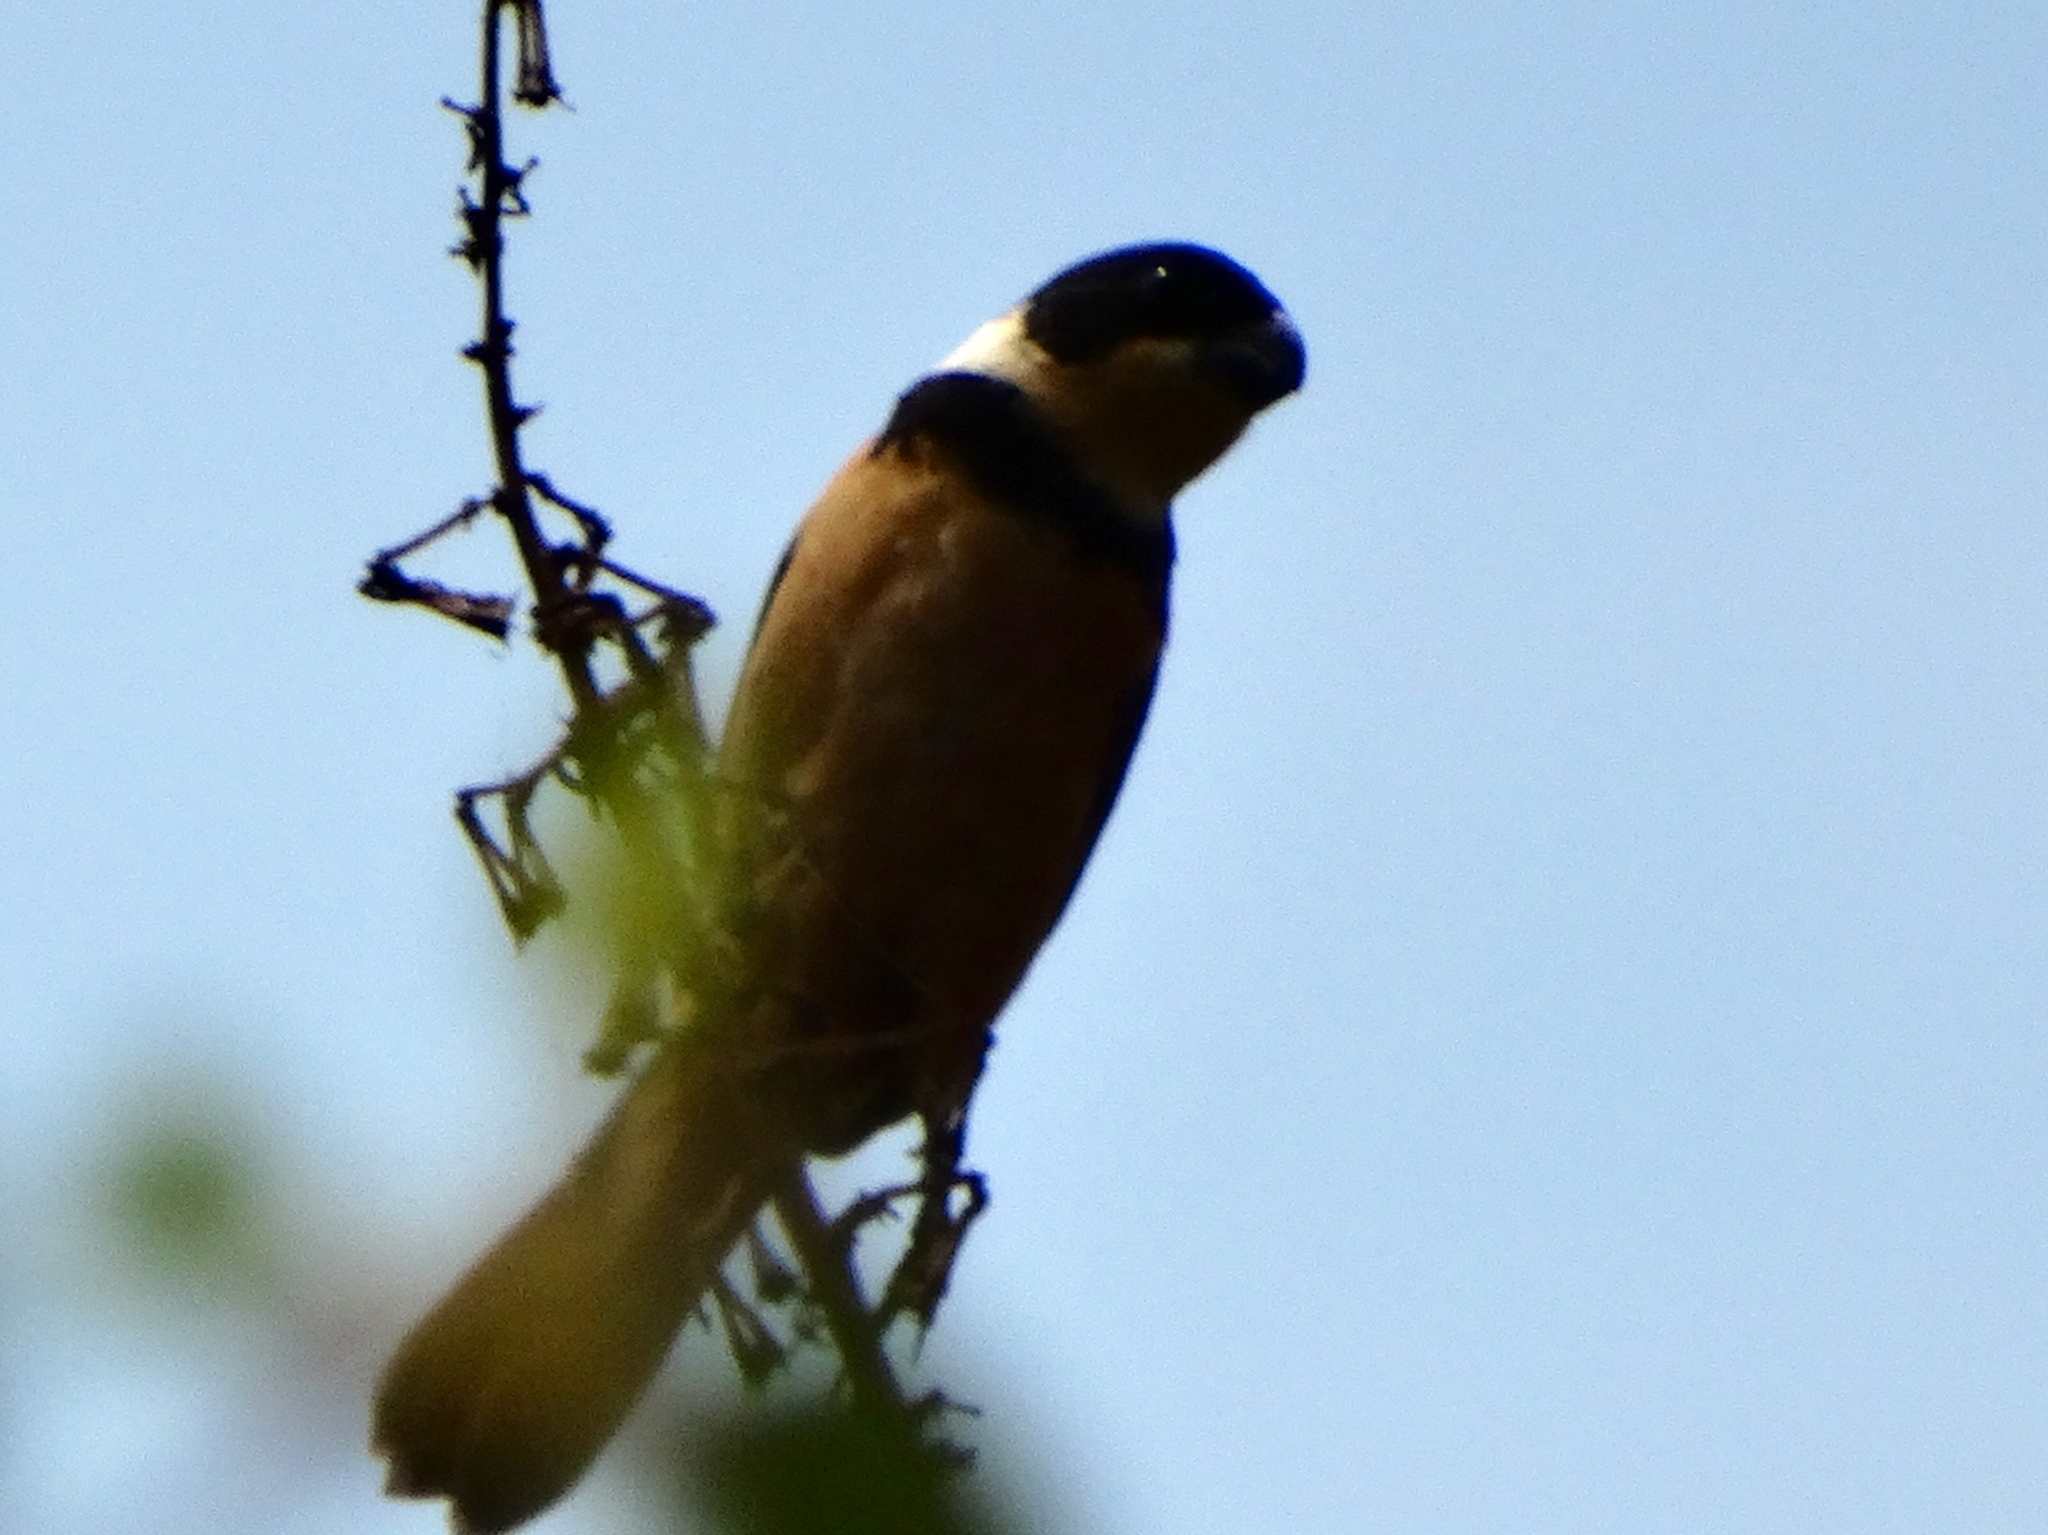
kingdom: Animalia
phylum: Chordata
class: Aves
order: Passeriformes
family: Thraupidae
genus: Sporophila
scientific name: Sporophila torqueola
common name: White-collared seedeater
